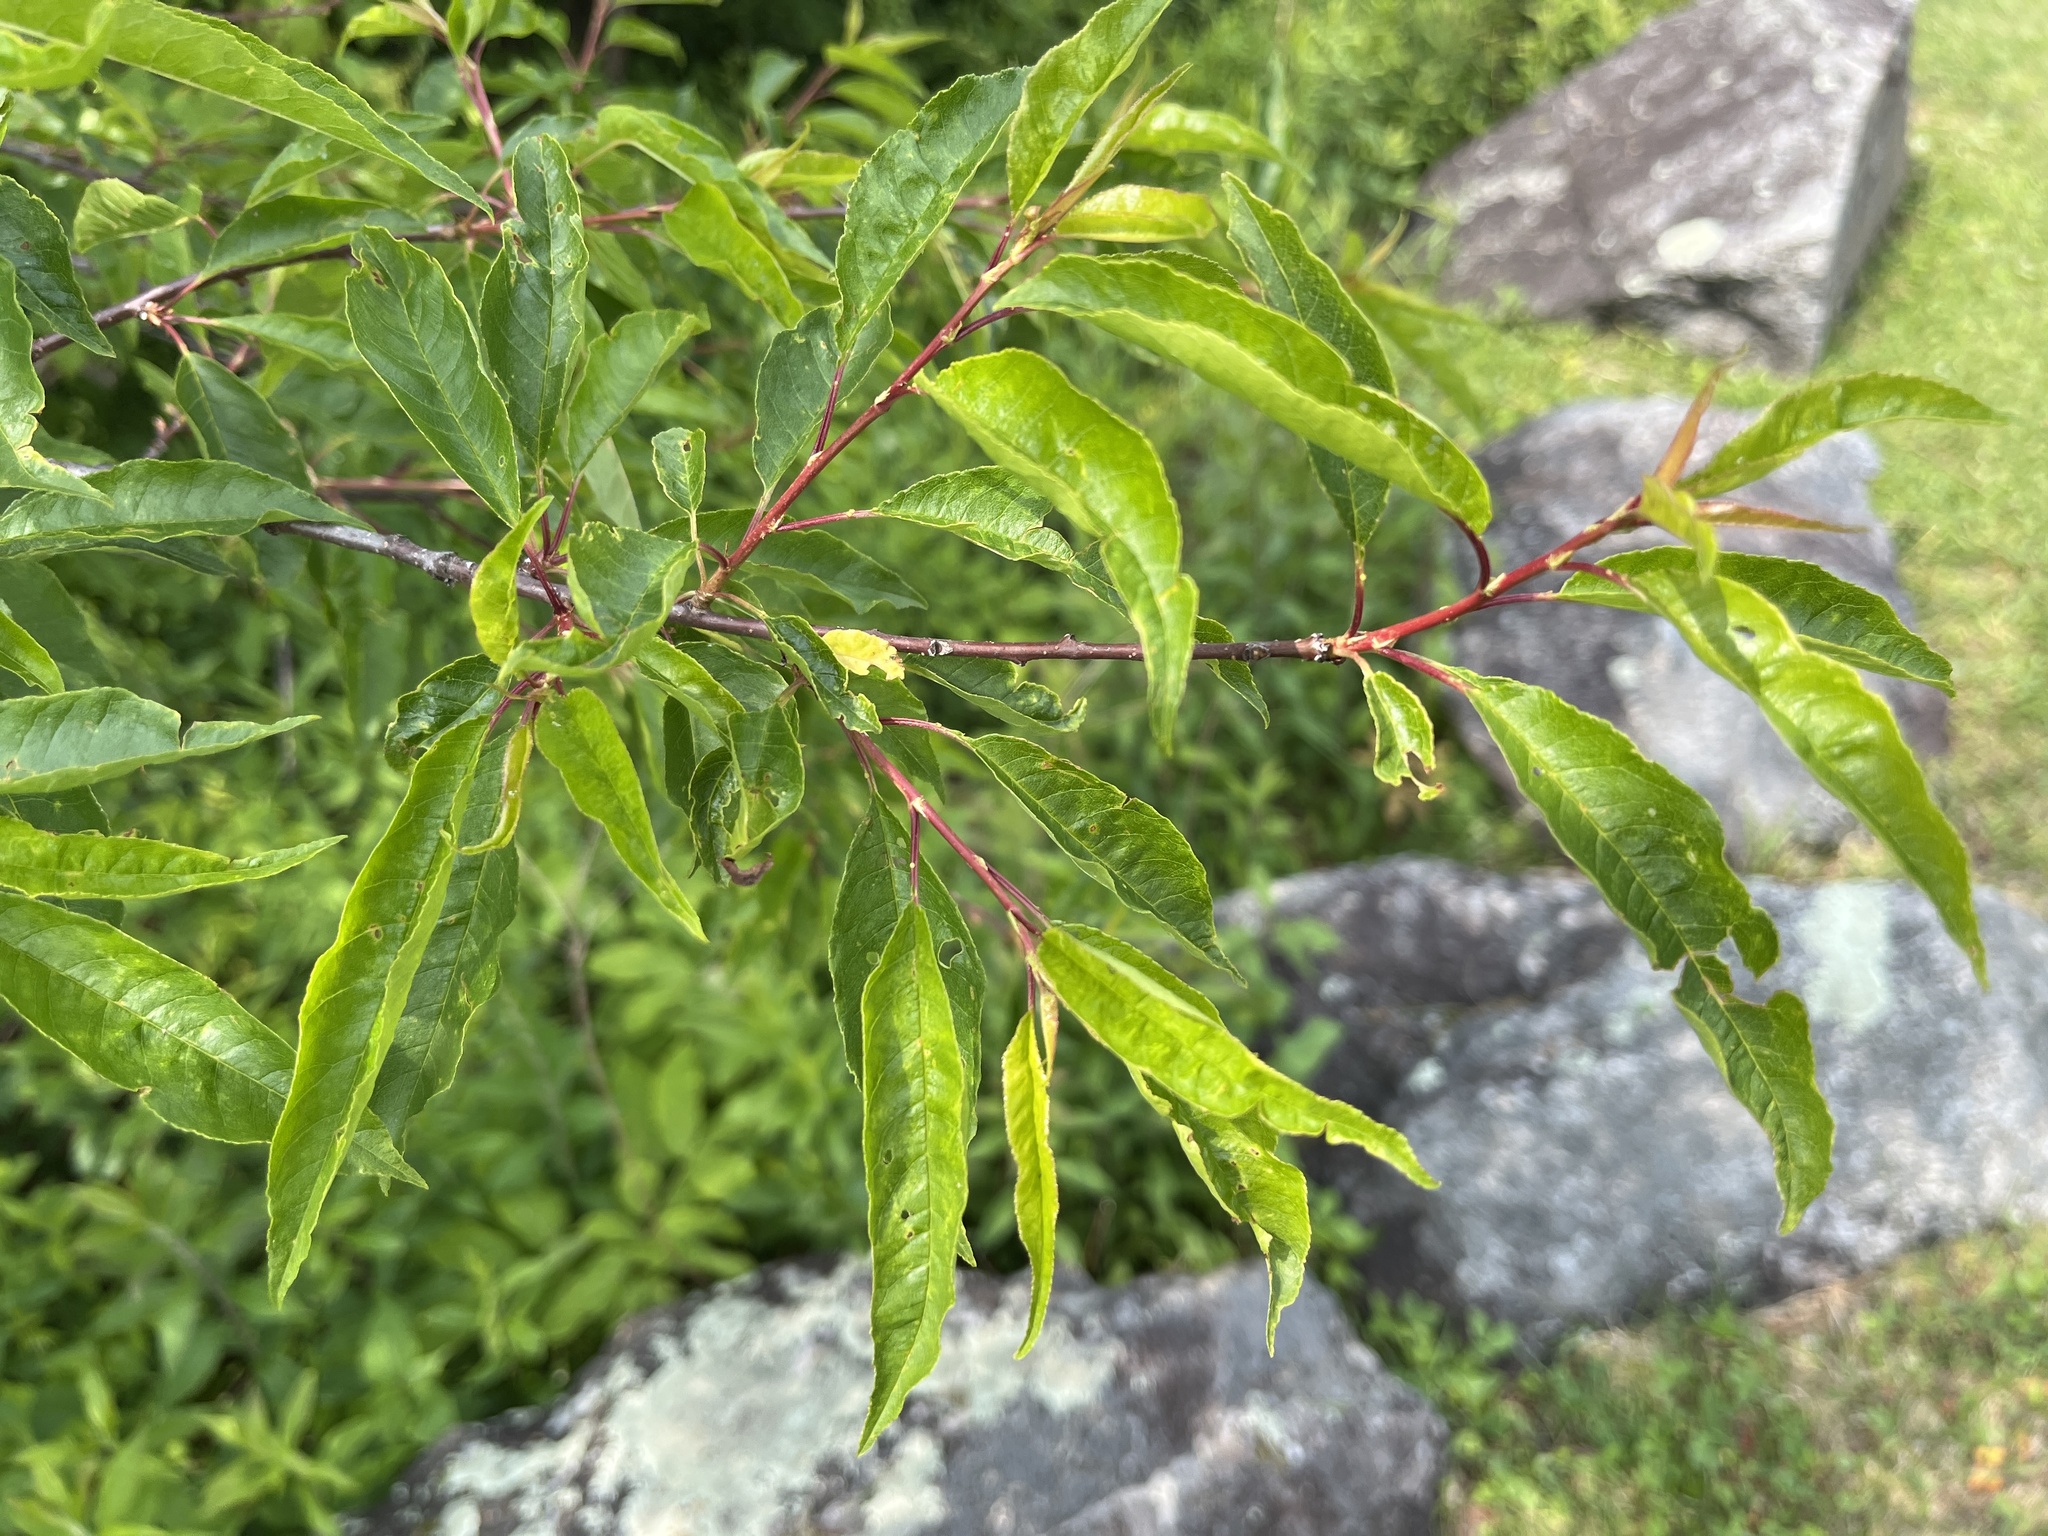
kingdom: Plantae
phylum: Tracheophyta
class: Magnoliopsida
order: Rosales
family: Rosaceae
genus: Prunus
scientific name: Prunus serotina
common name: Black cherry
